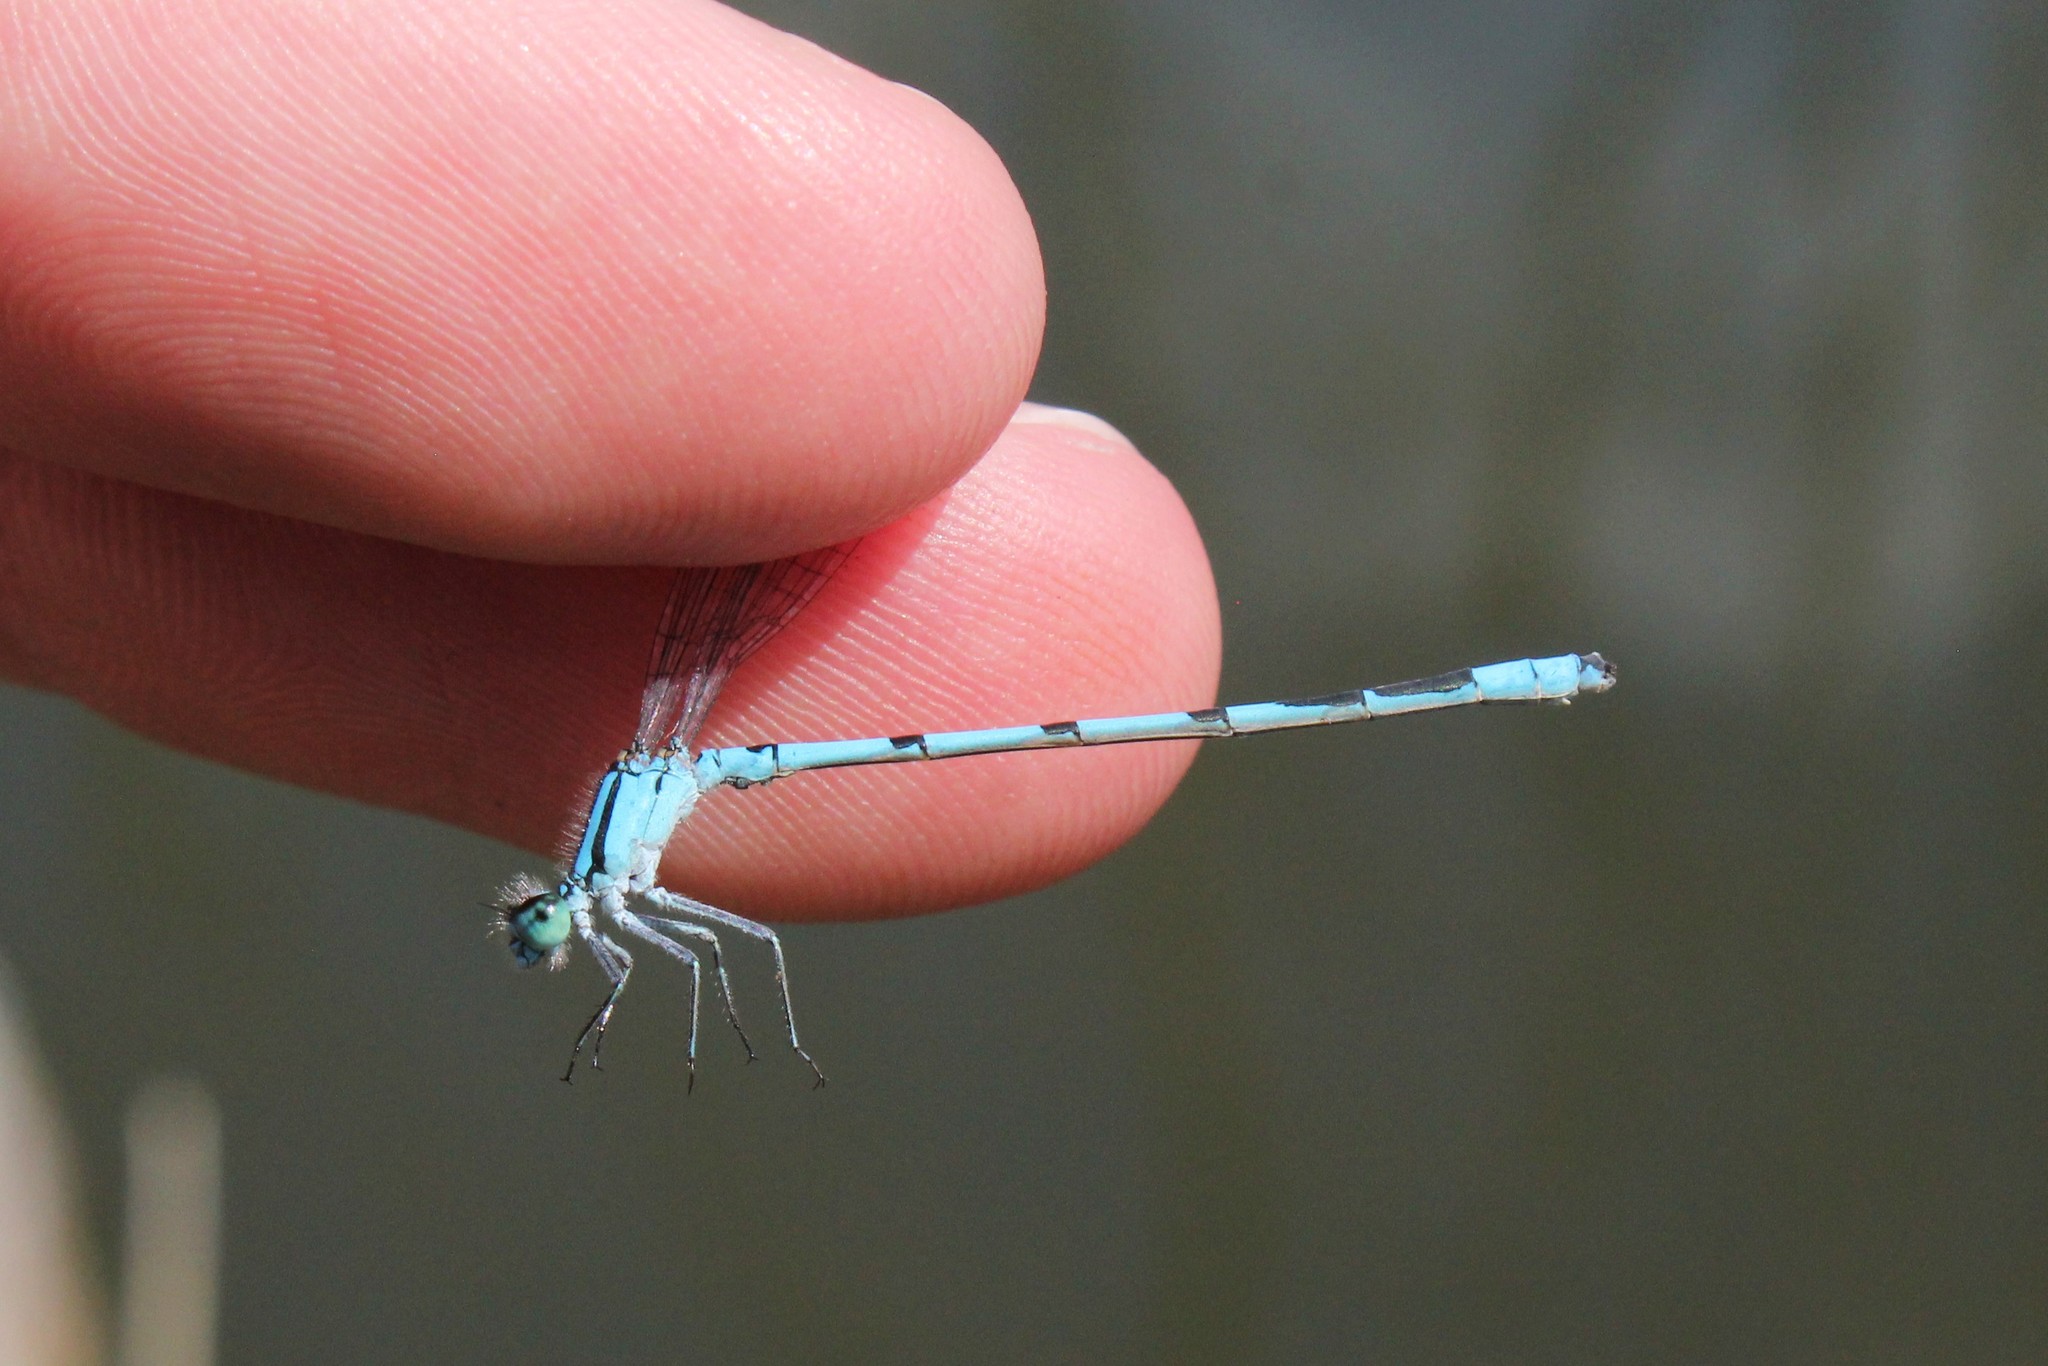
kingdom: Animalia
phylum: Arthropoda
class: Insecta
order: Odonata
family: Coenagrionidae
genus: Enallagma
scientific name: Enallagma ebrium
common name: Marsh bluet
